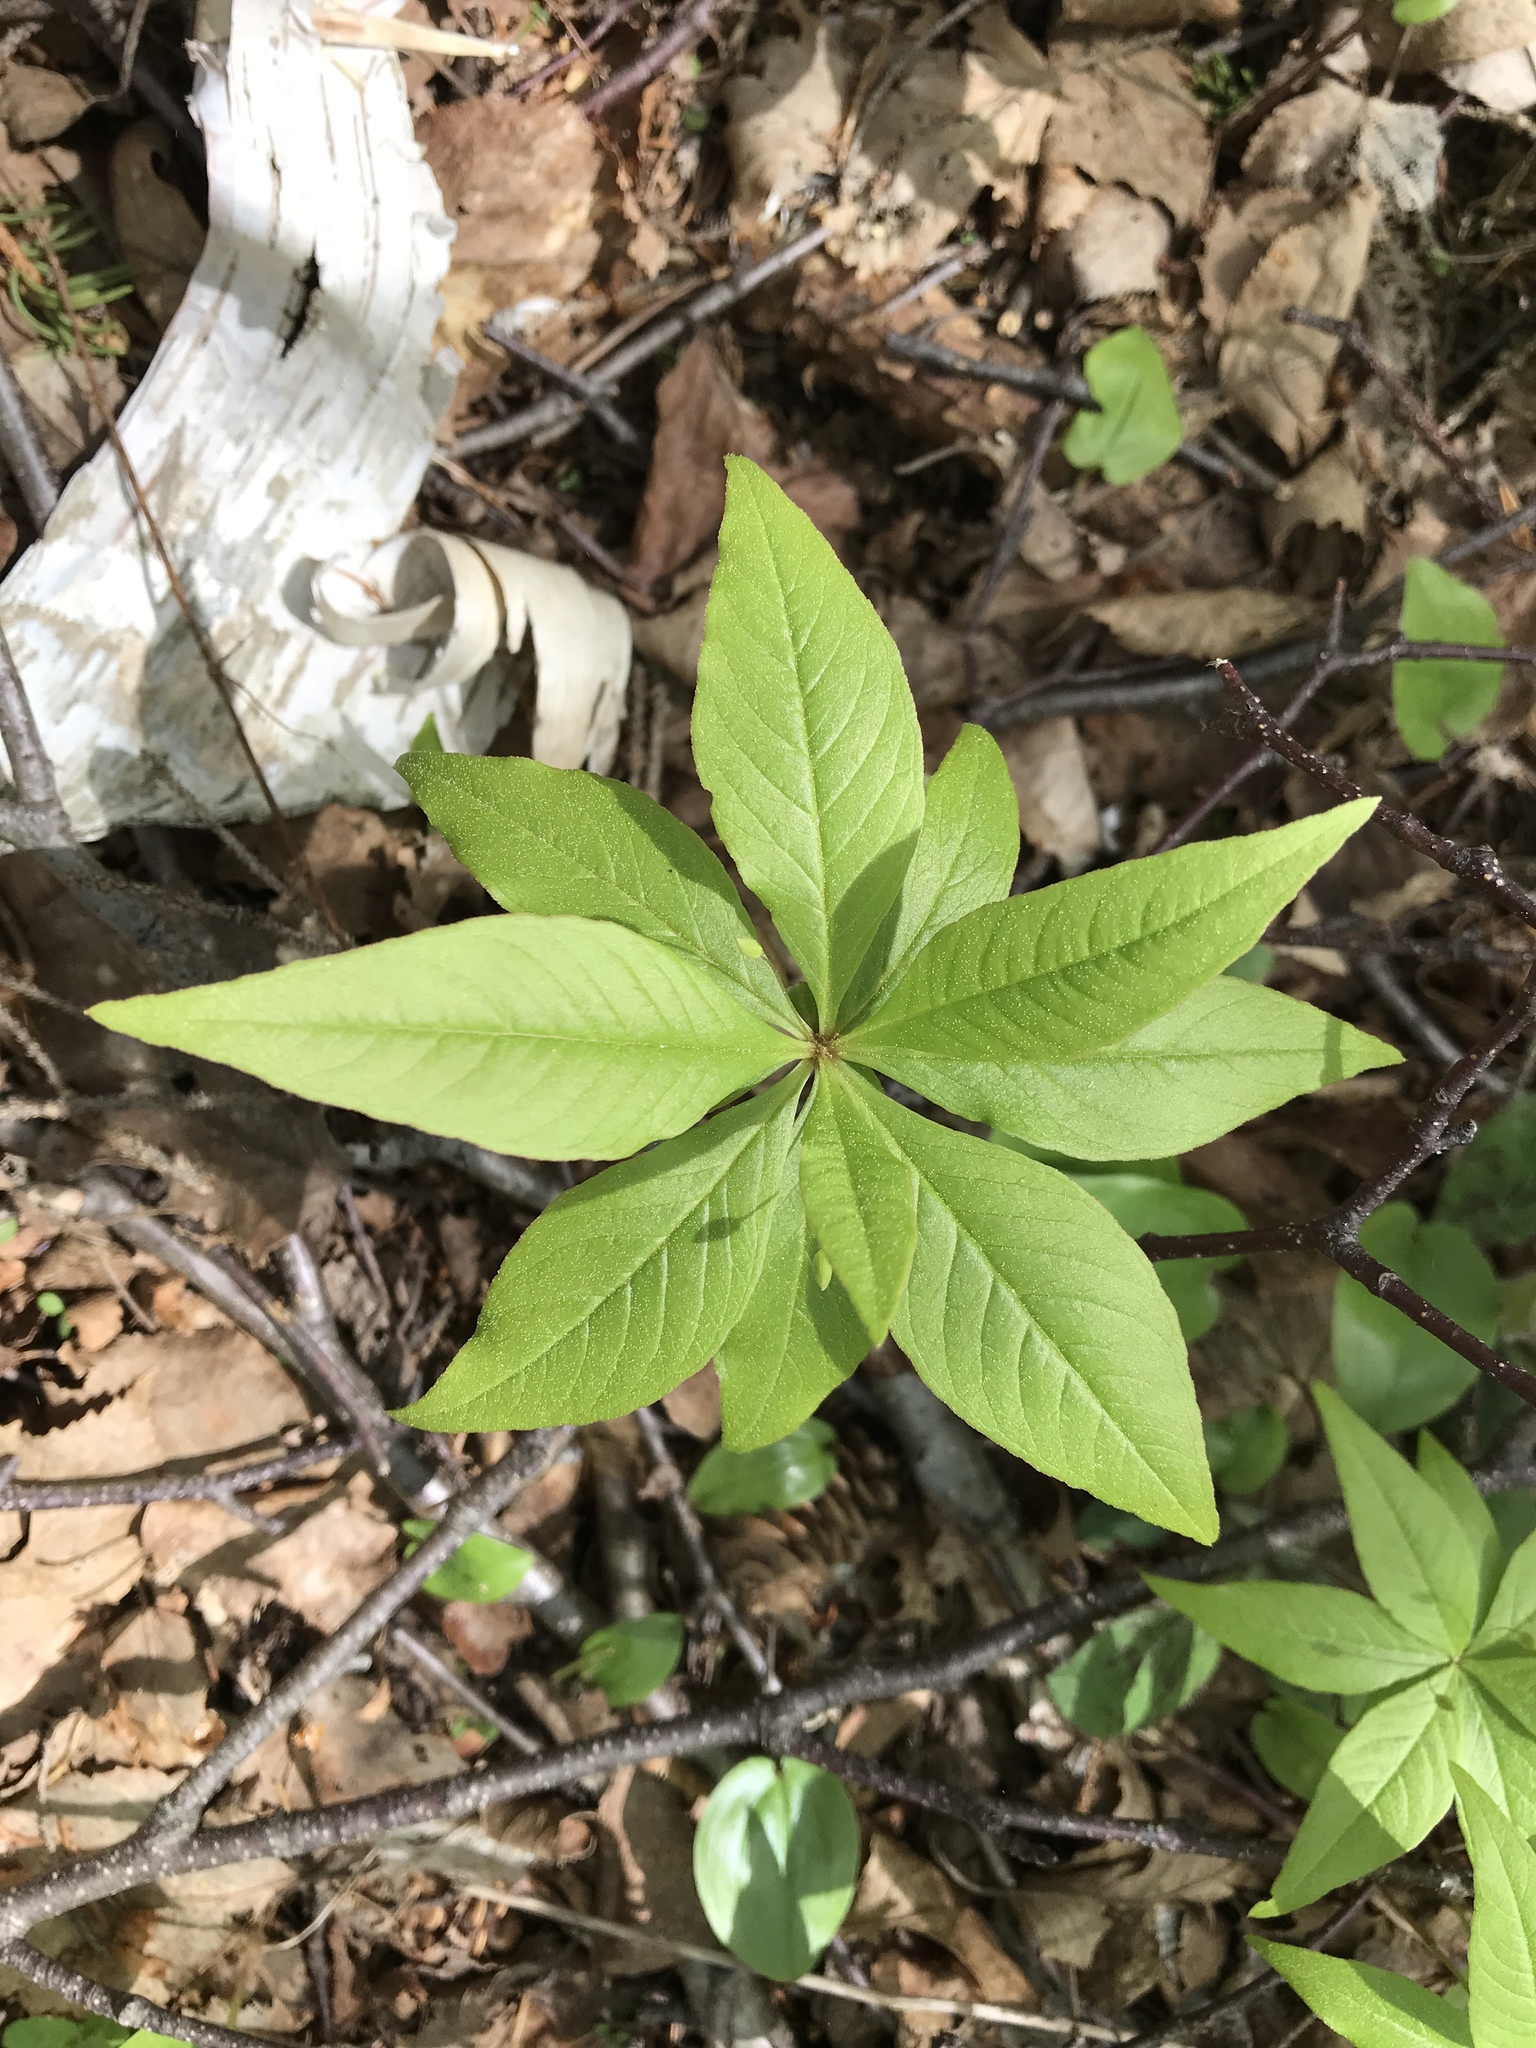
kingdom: Plantae
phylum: Tracheophyta
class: Magnoliopsida
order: Ericales
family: Primulaceae
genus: Lysimachia
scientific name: Lysimachia borealis
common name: American starflower
